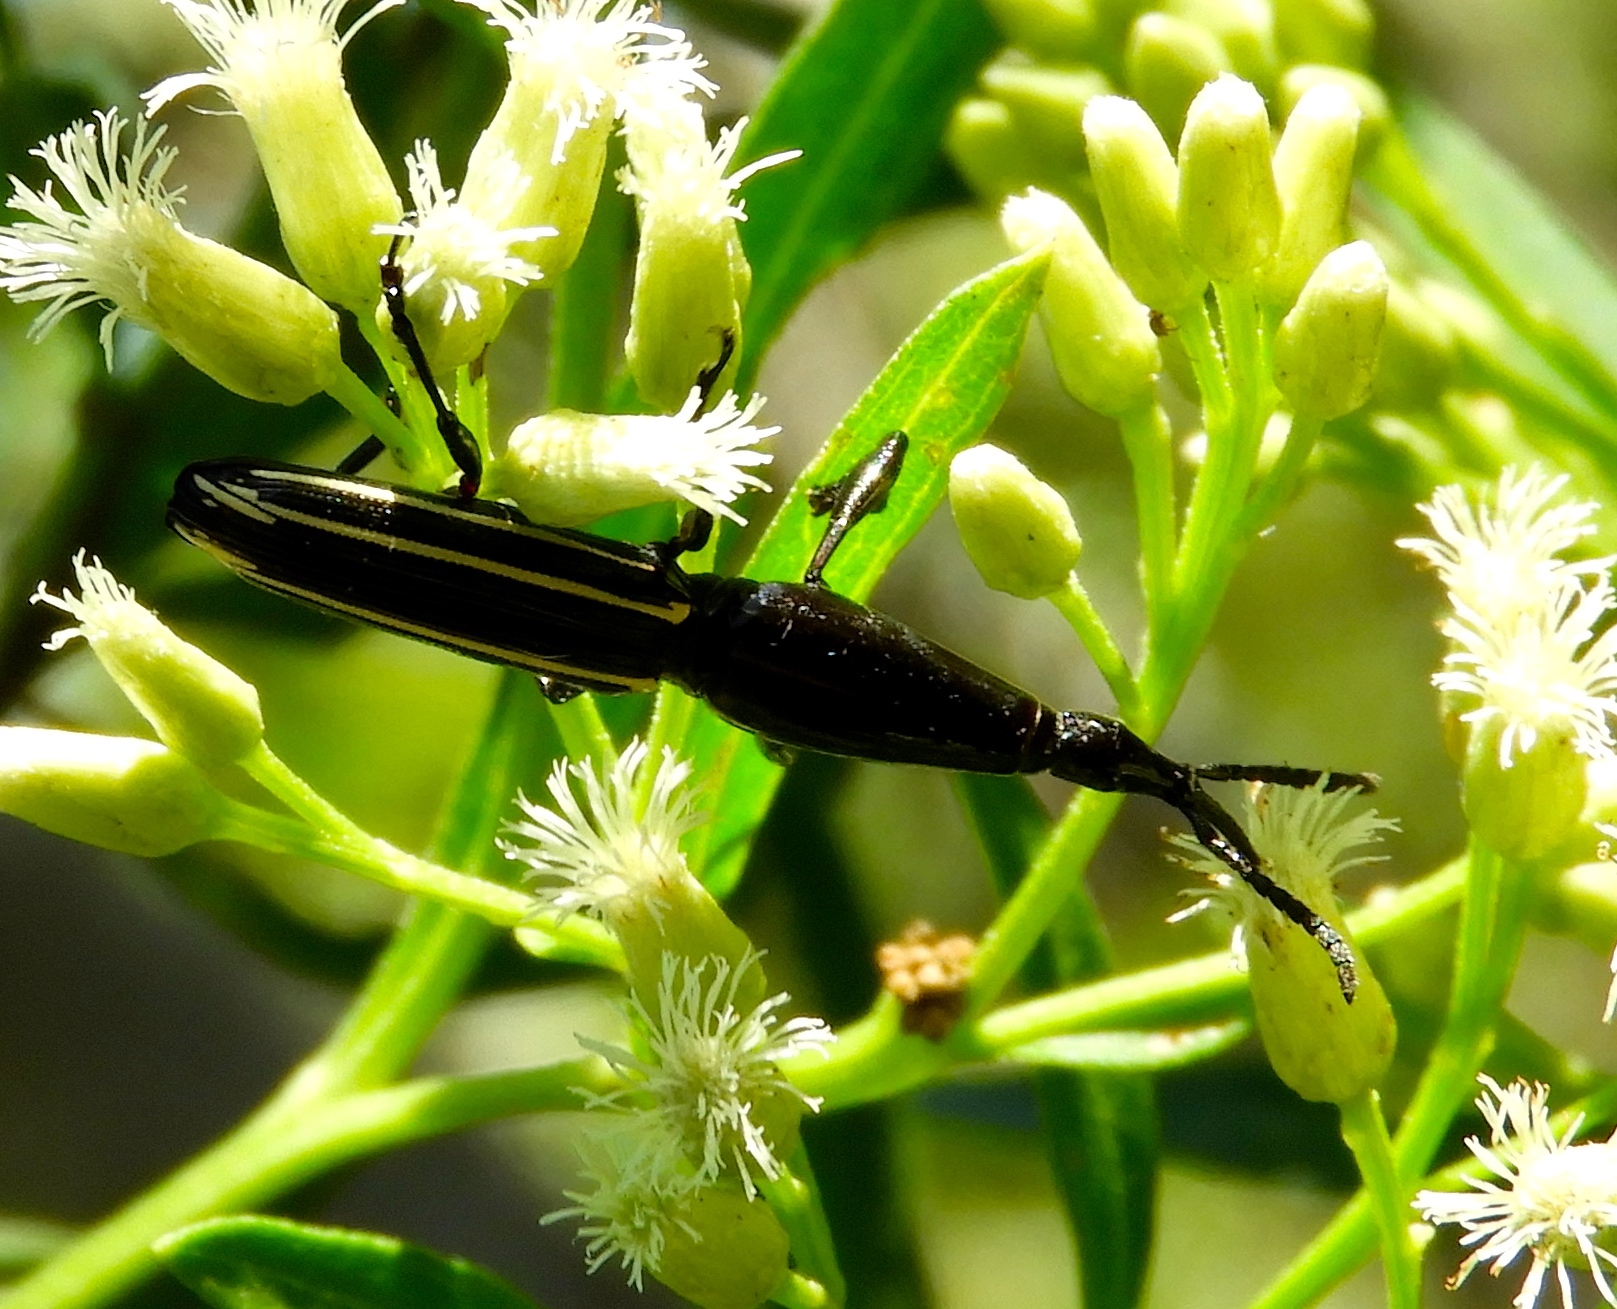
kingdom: Animalia
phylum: Arthropoda
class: Insecta
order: Coleoptera
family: Brentidae
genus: Brentus
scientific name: Brentus
